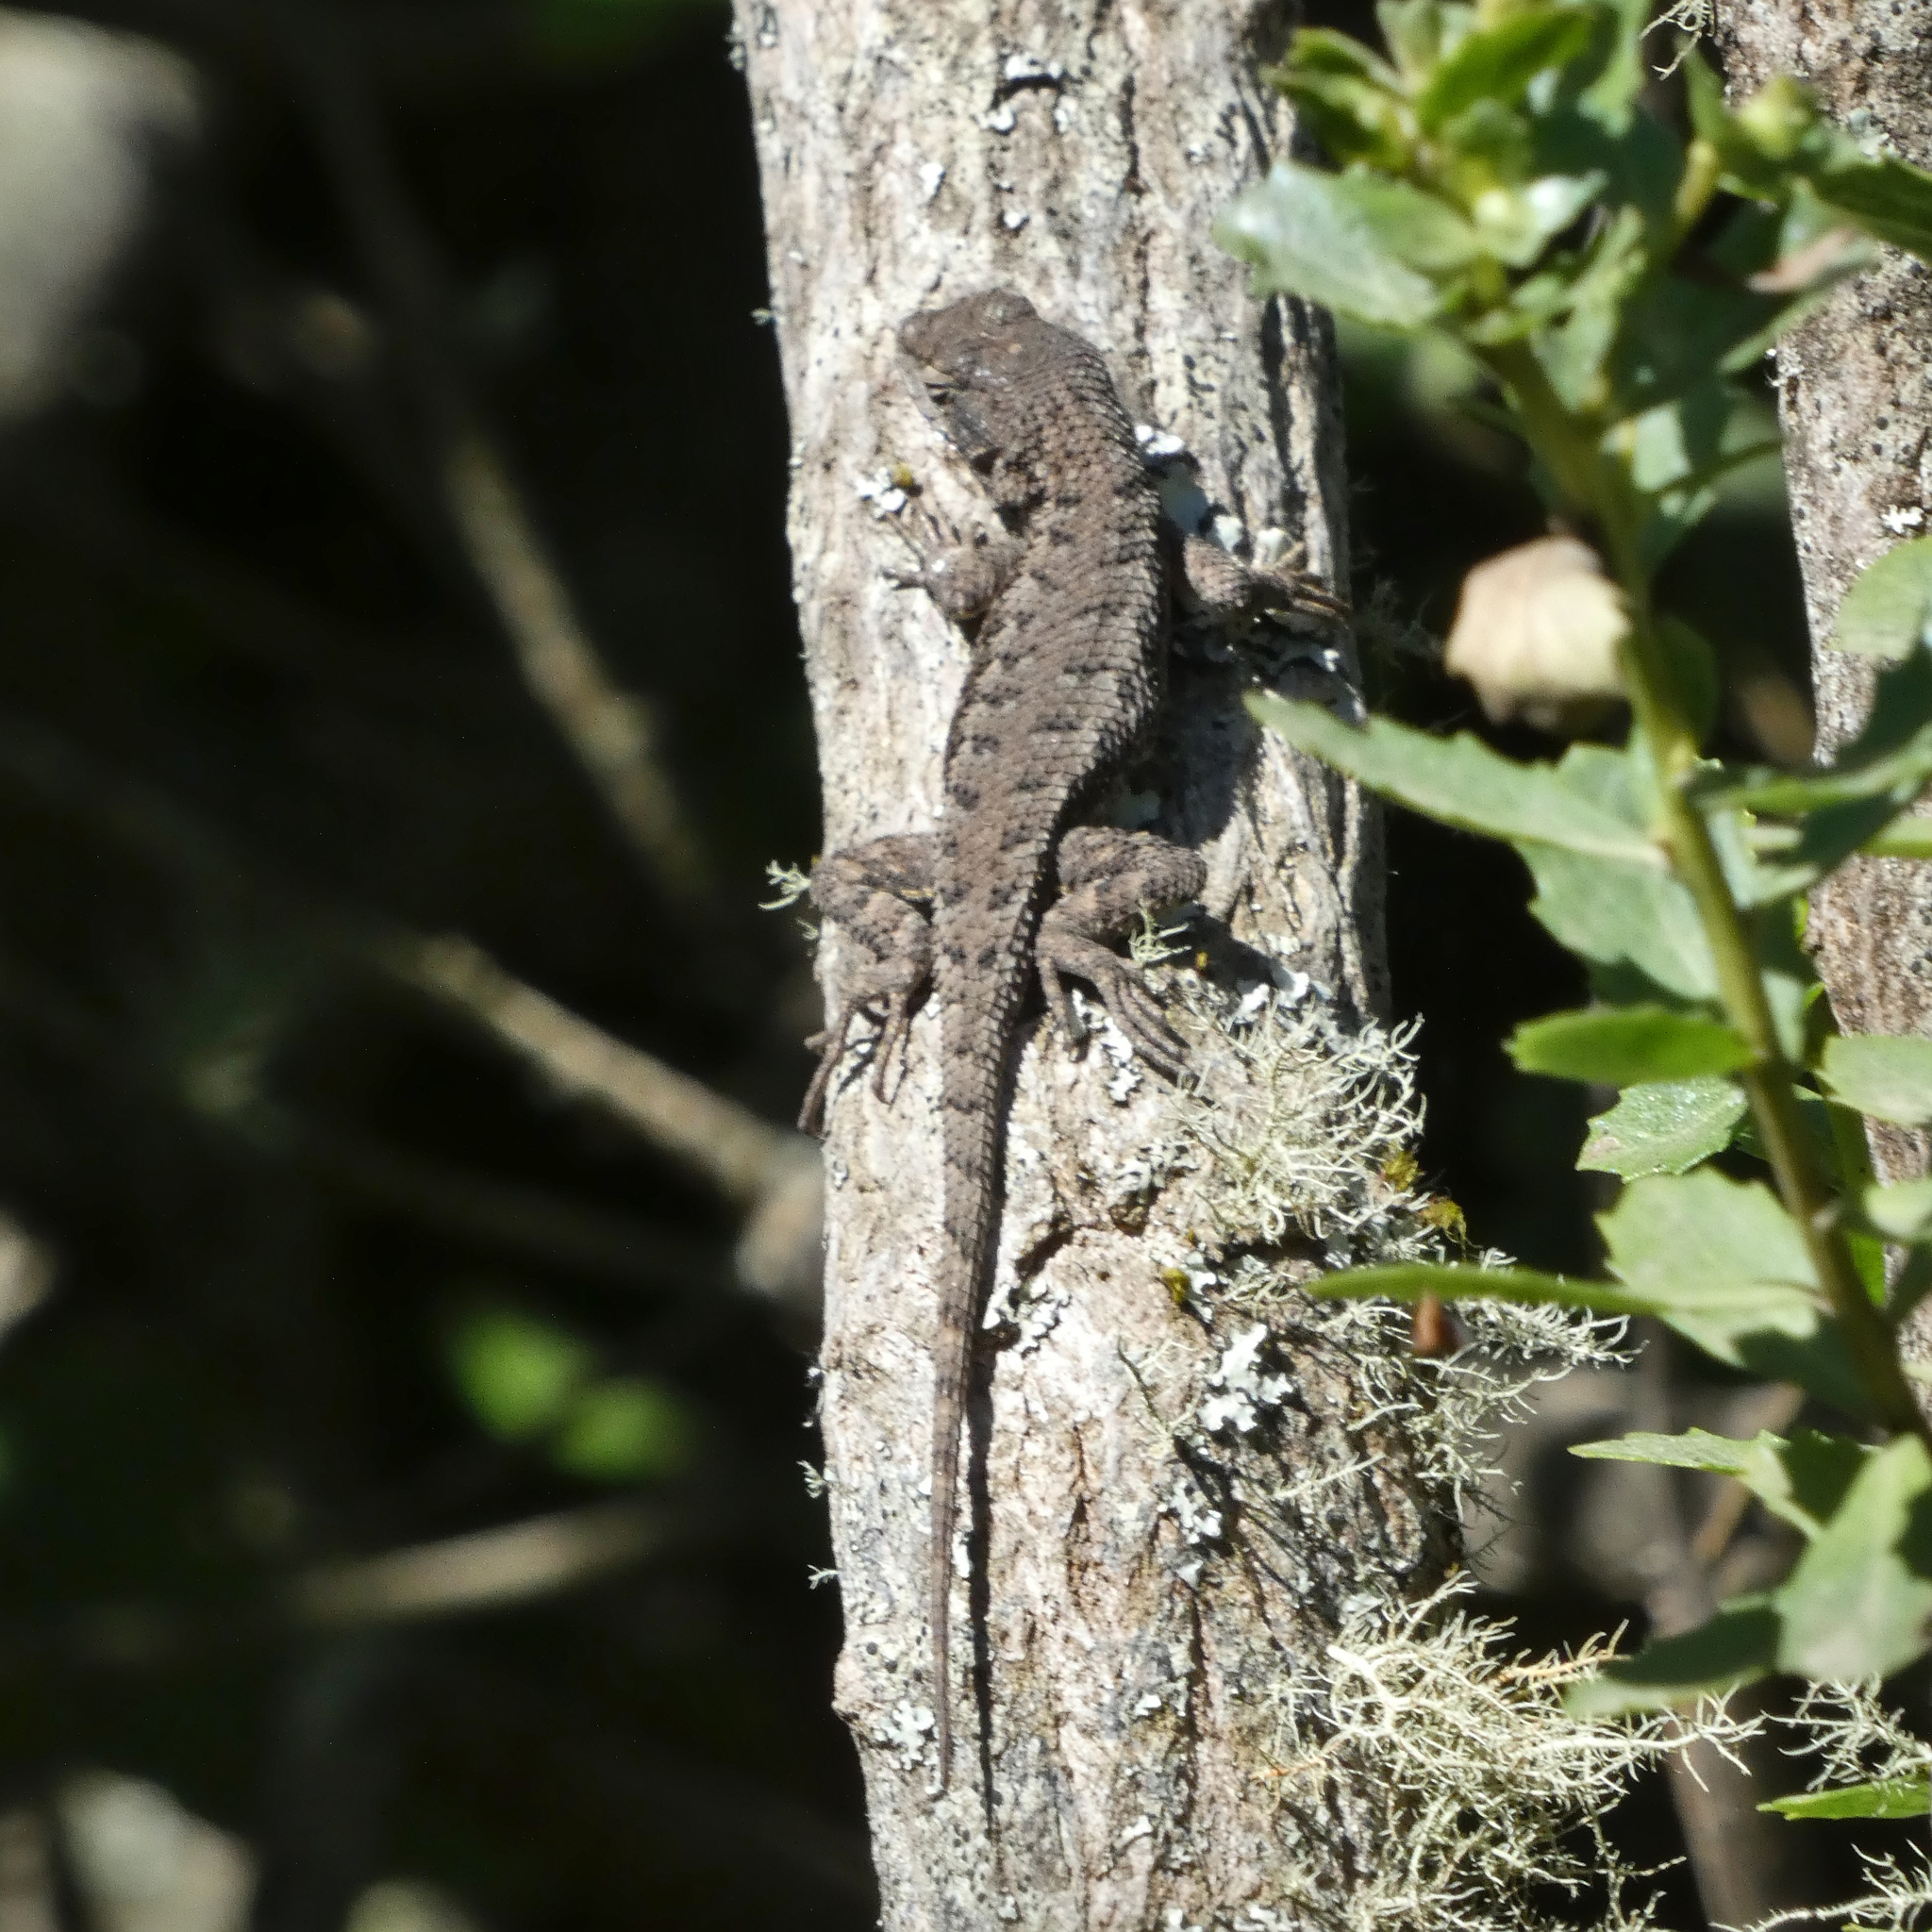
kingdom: Animalia
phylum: Chordata
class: Squamata
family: Phrynosomatidae
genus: Sceloporus
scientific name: Sceloporus occidentalis
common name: Western fence lizard
